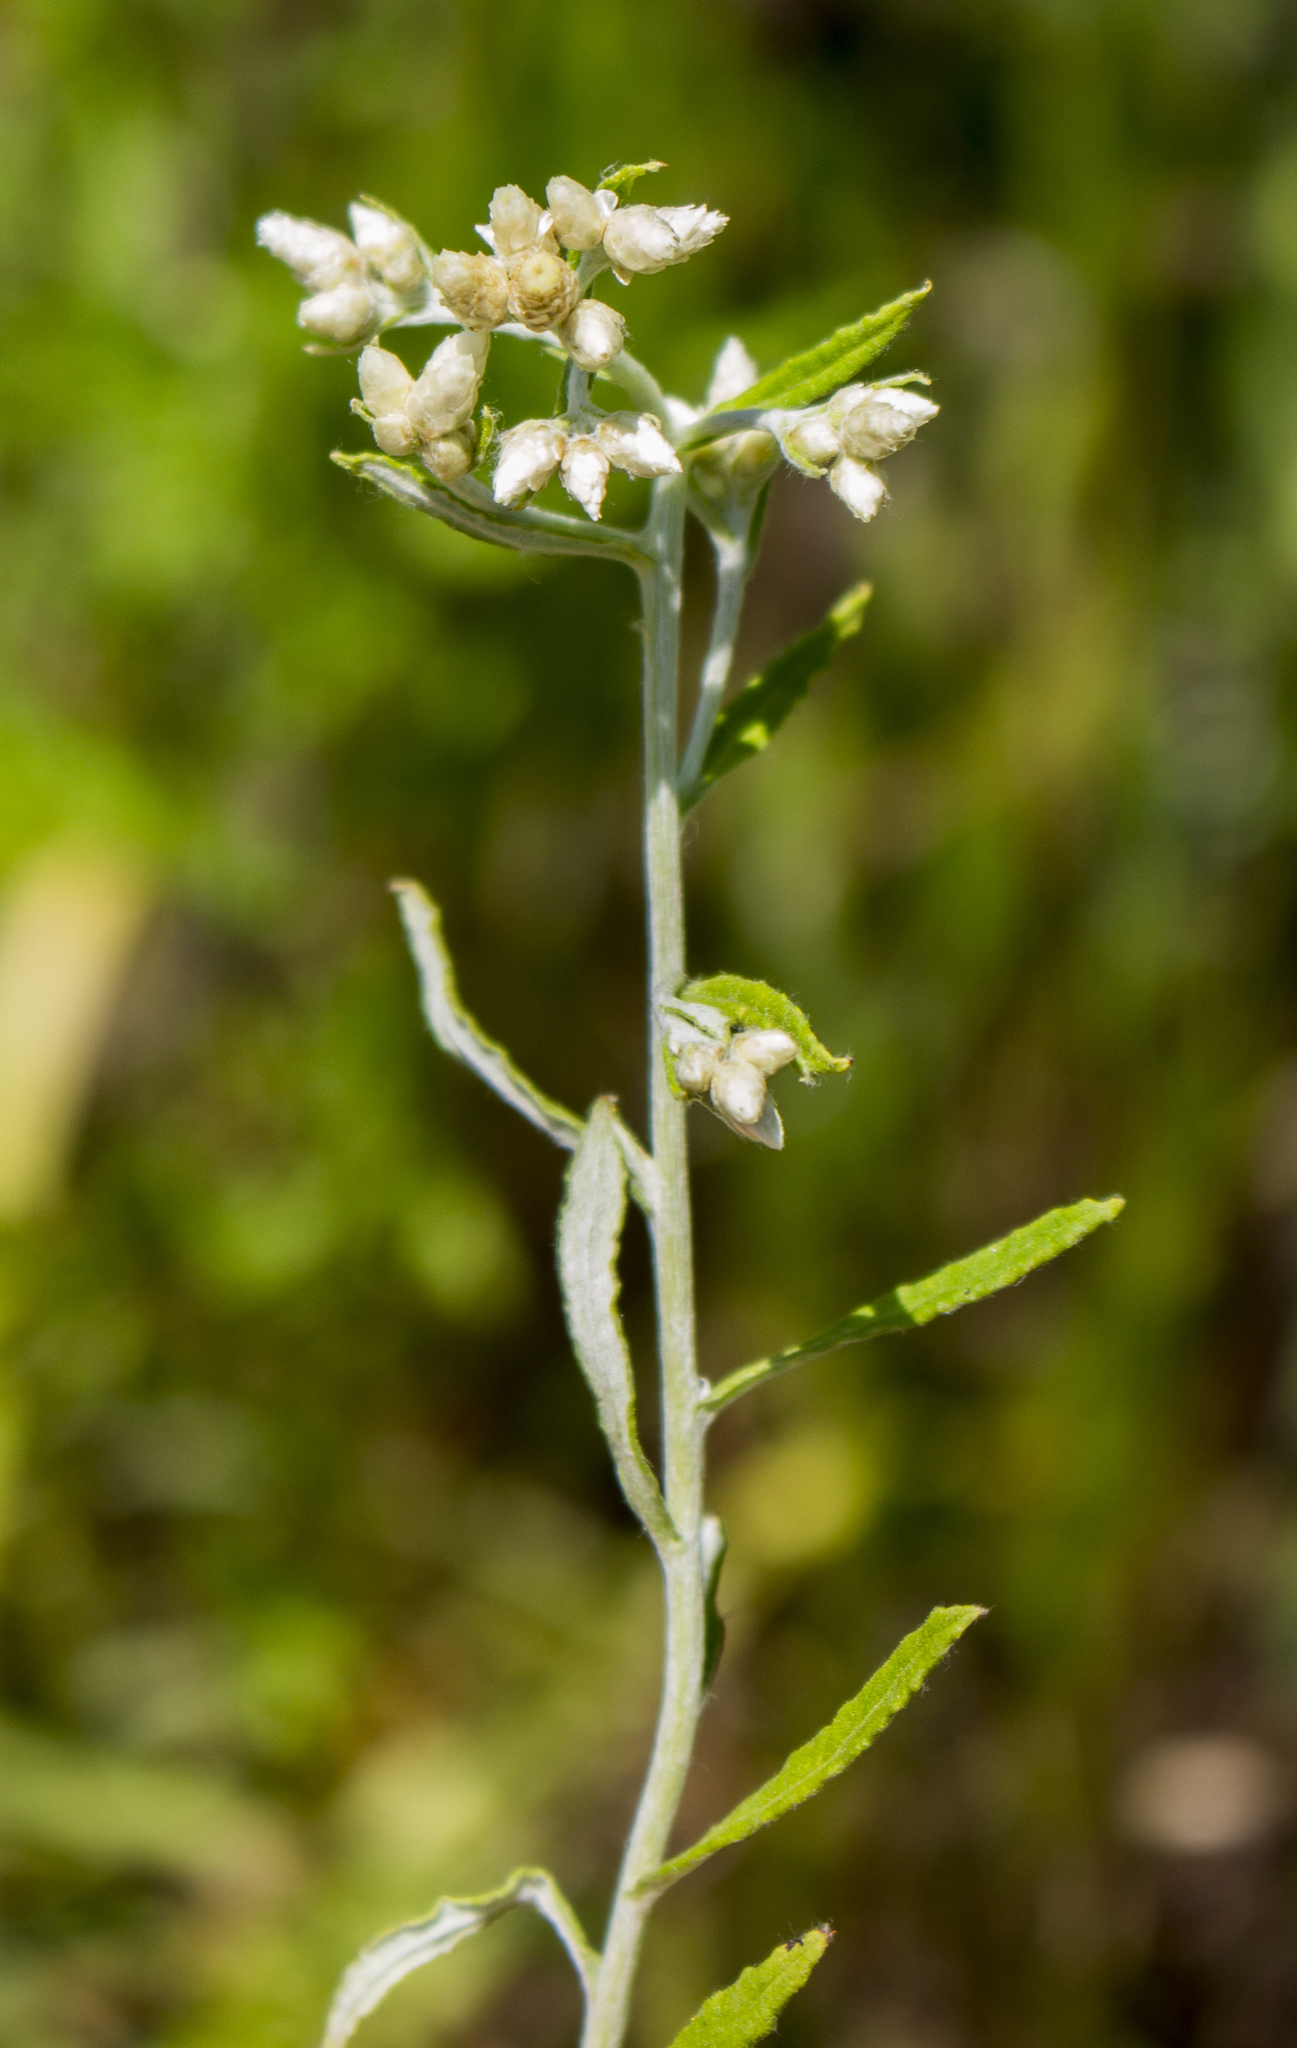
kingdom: Plantae
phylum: Tracheophyta
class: Magnoliopsida
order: Asterales
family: Asteraceae
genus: Pseudognaphalium
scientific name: Pseudognaphalium obtusifolium
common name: Eastern rabbit-tobacco
